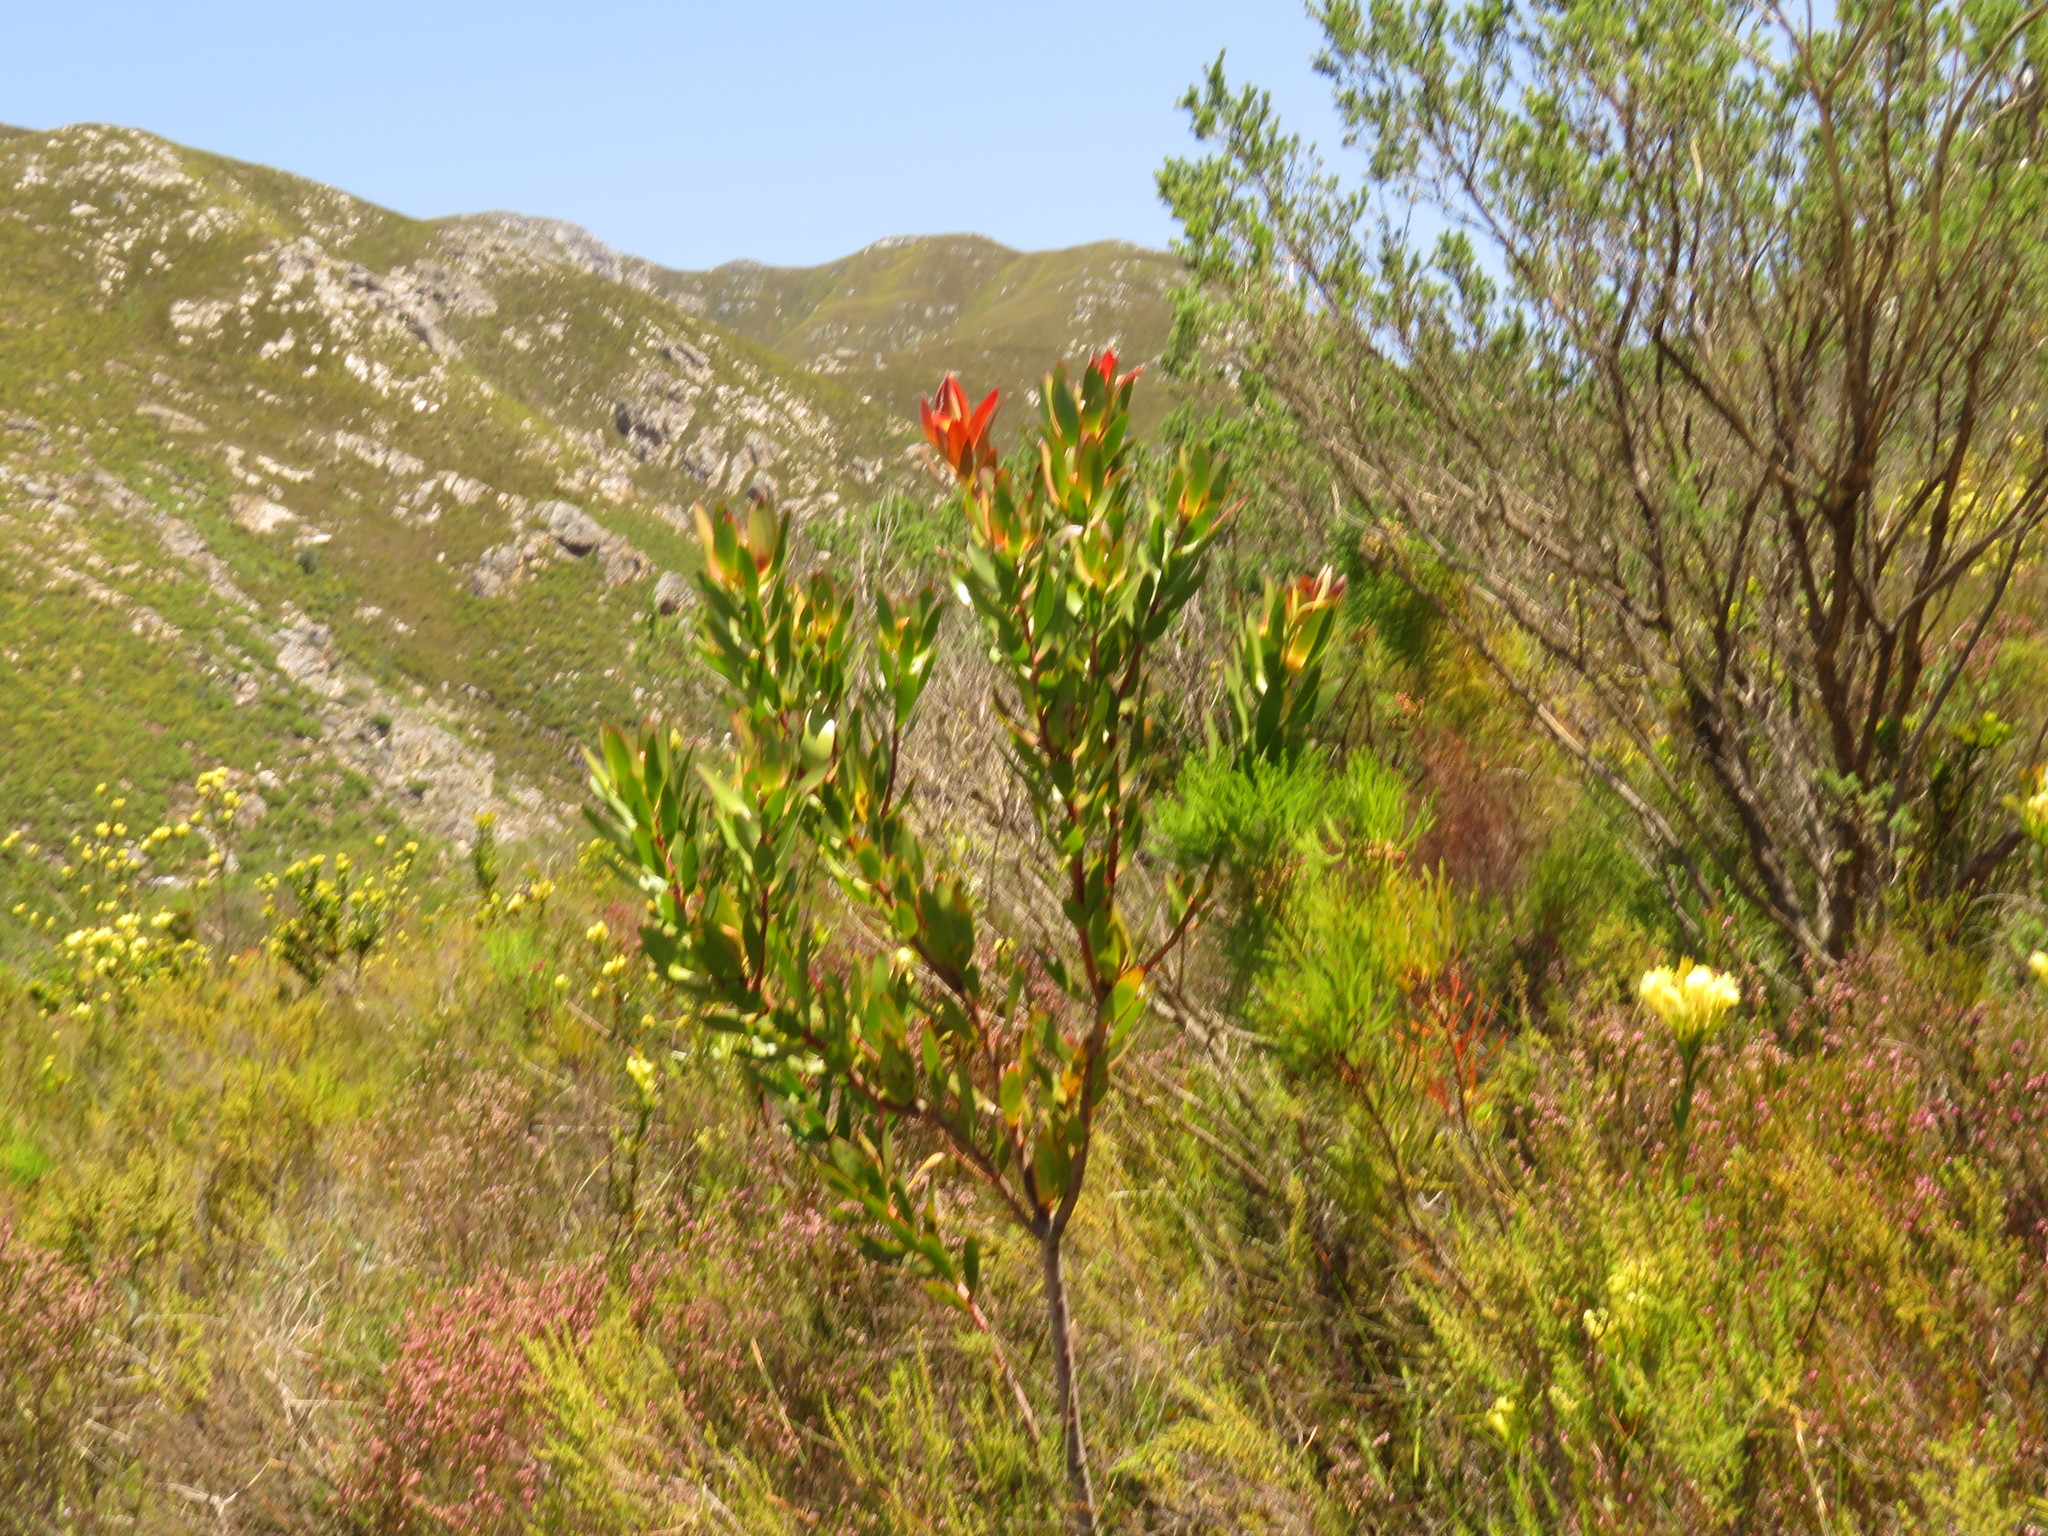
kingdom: Plantae
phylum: Tracheophyta
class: Magnoliopsida
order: Fabales
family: Fabaceae
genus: Aspalathus
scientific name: Aspalathus excelsa
